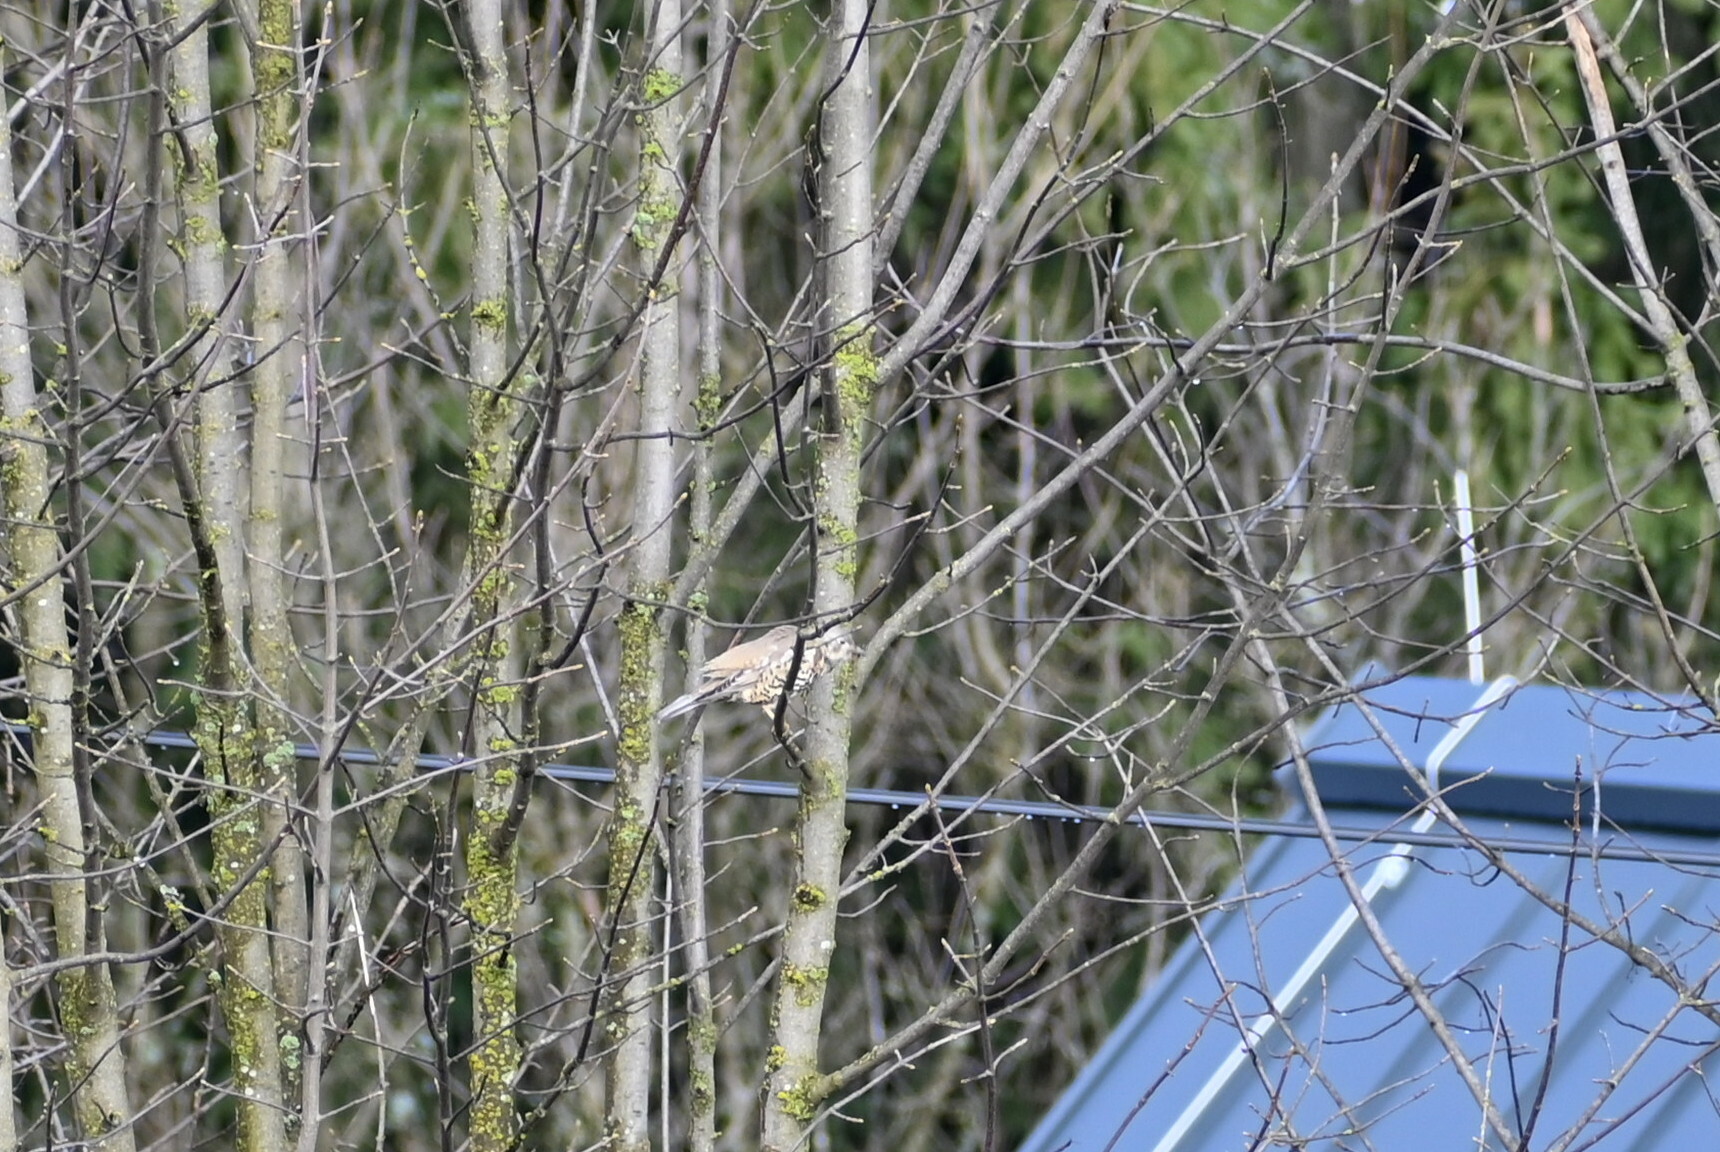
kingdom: Animalia
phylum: Chordata
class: Aves
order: Passeriformes
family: Turdidae
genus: Turdus
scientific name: Turdus viscivorus
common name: Mistle thrush
